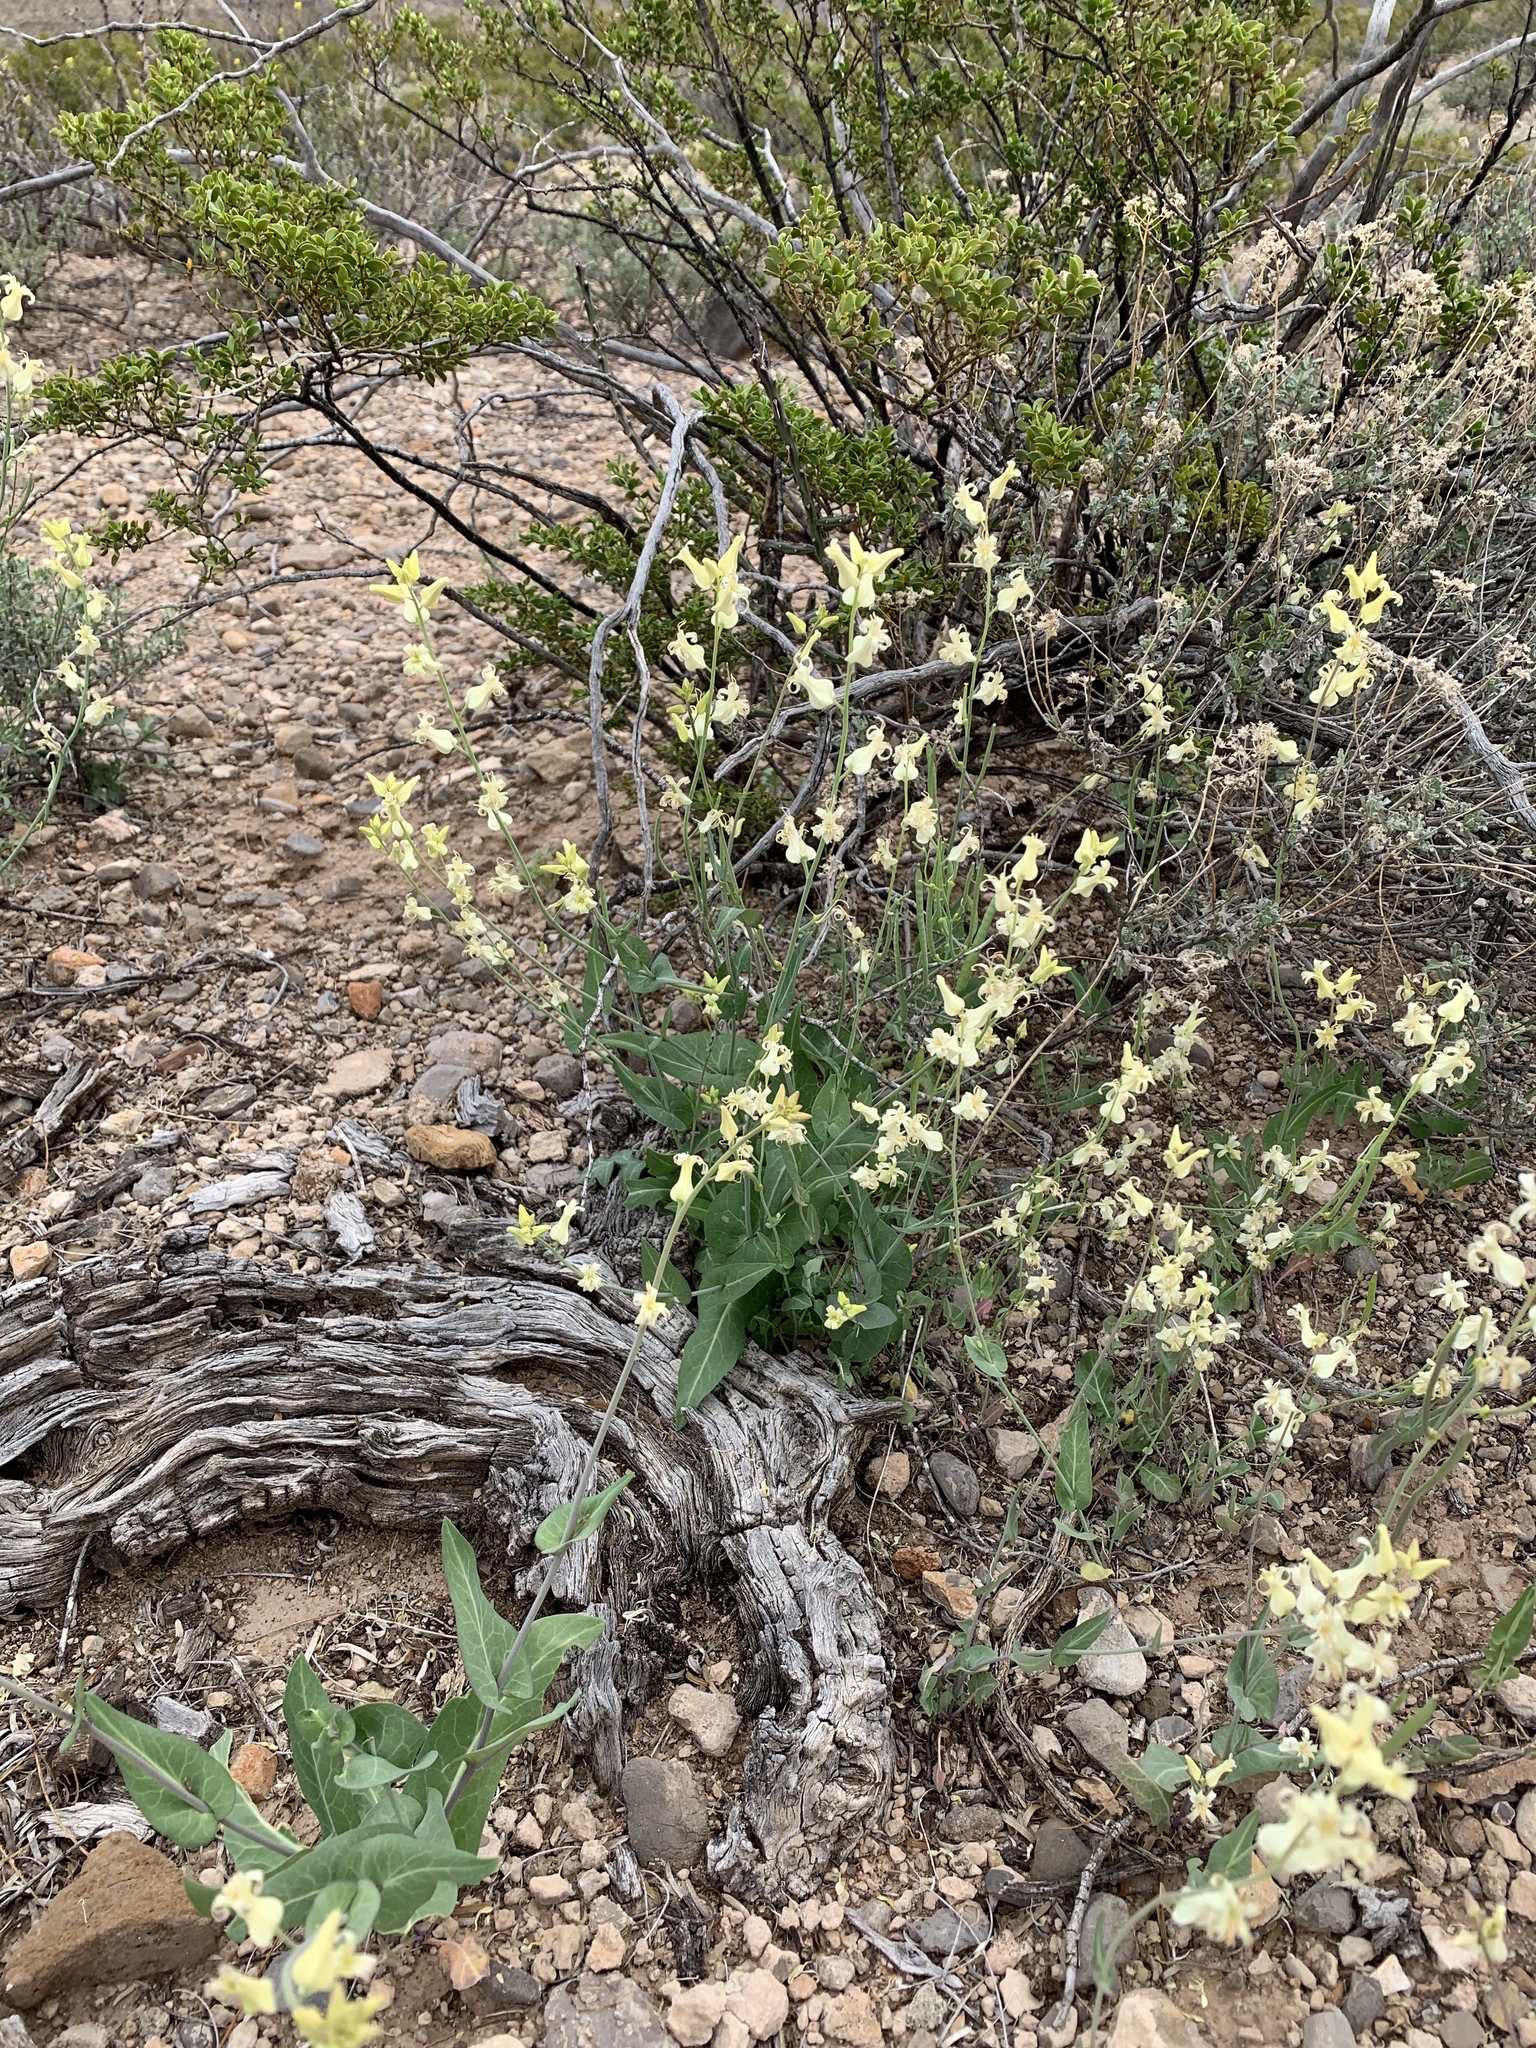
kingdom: Plantae
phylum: Tracheophyta
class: Magnoliopsida
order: Brassicales
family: Brassicaceae
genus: Streptanthus
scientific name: Streptanthus carinatus
